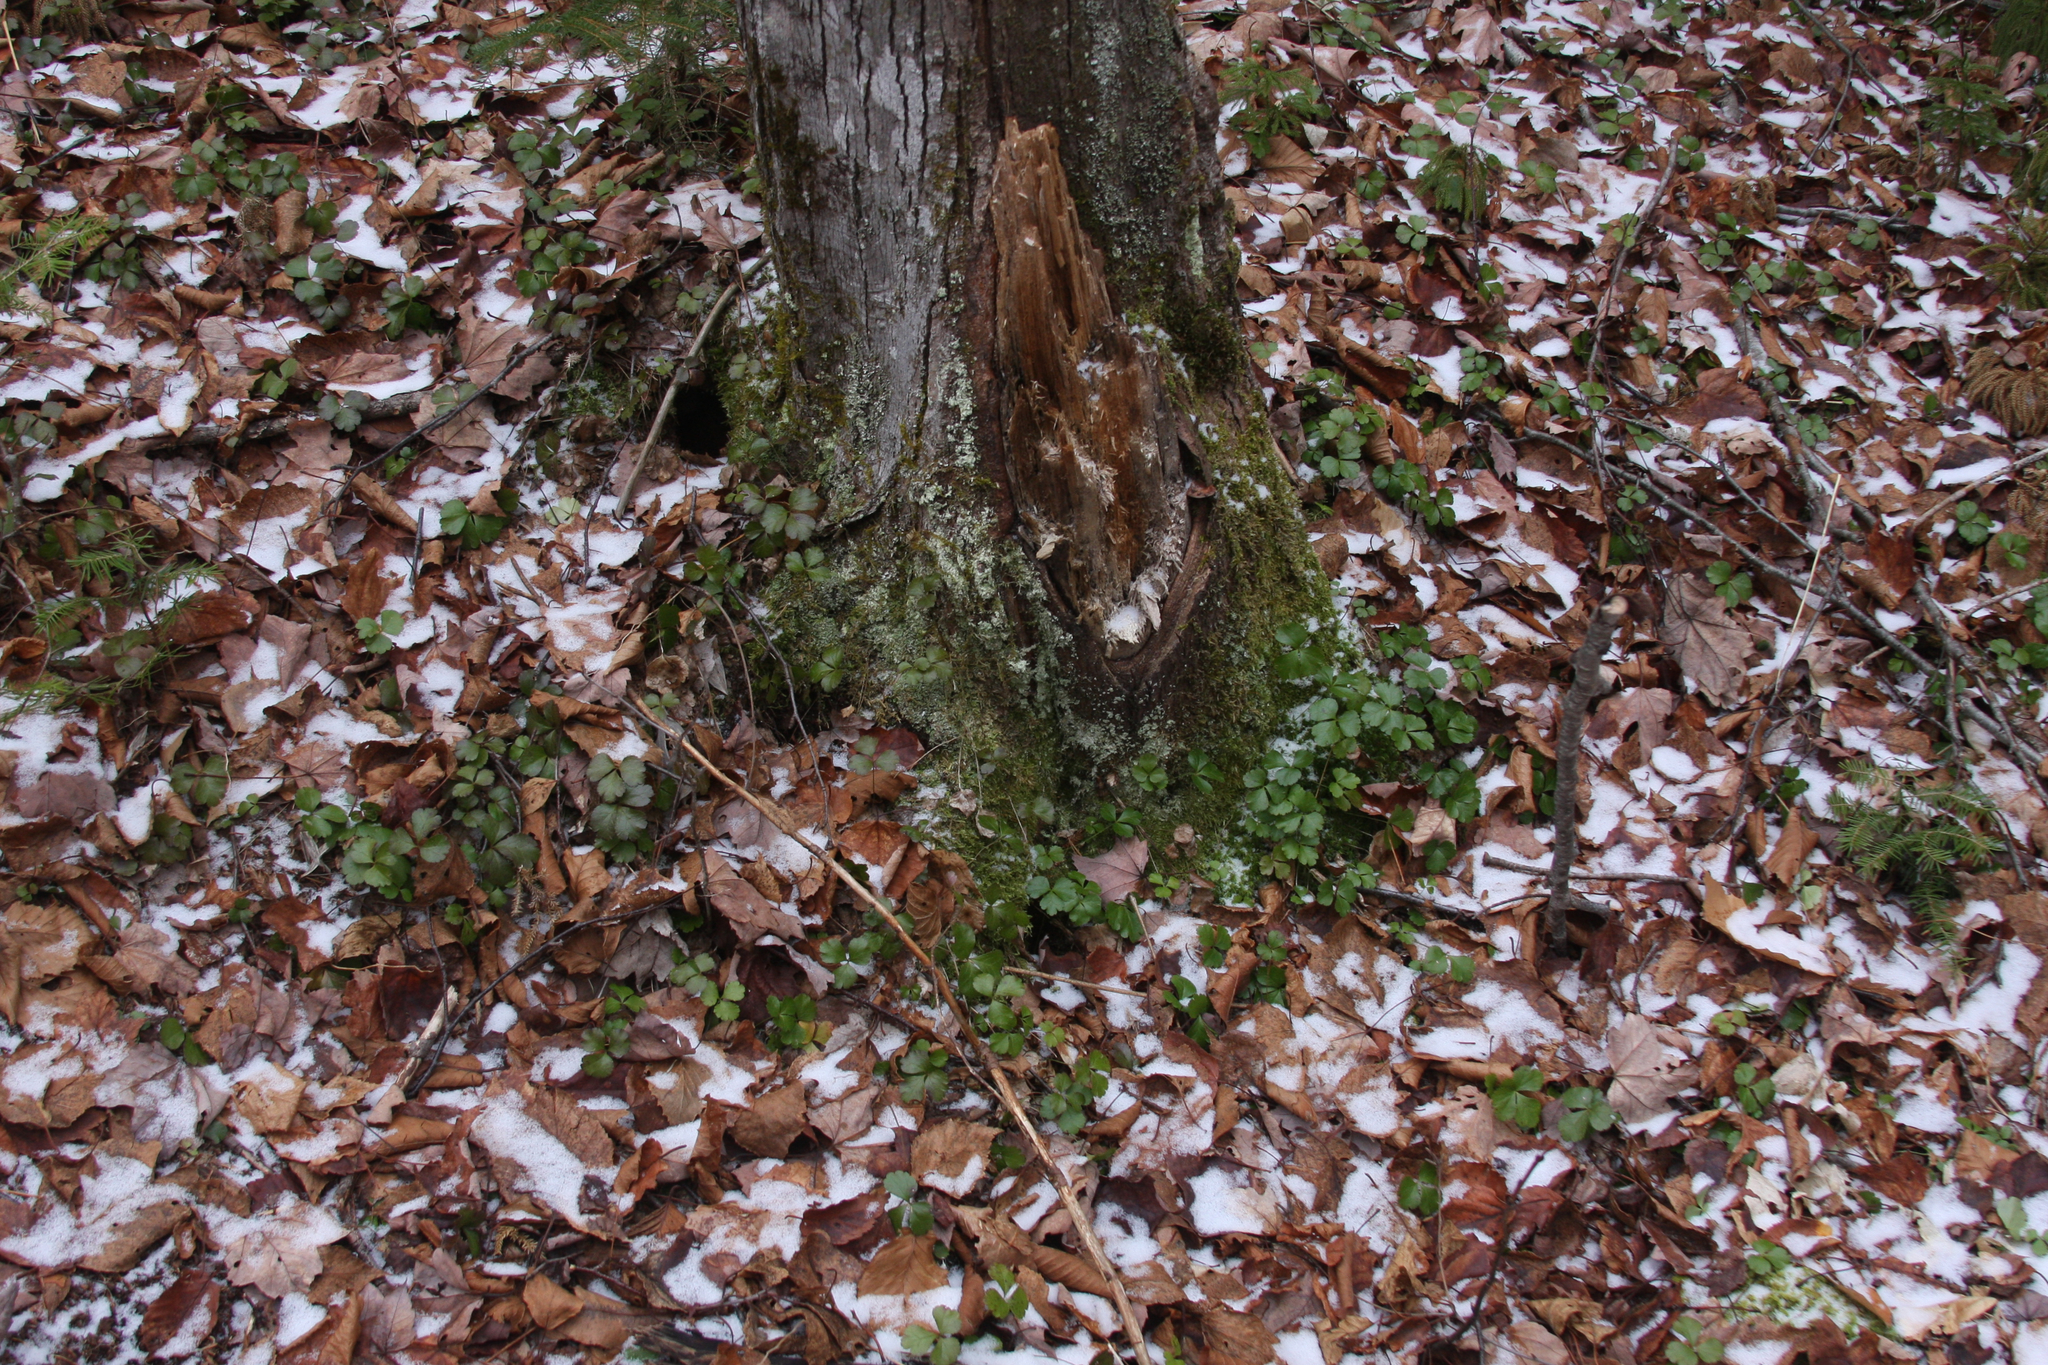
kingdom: Plantae
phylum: Tracheophyta
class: Magnoliopsida
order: Ranunculales
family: Ranunculaceae
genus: Coptis
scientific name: Coptis trifolia
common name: Canker-root
